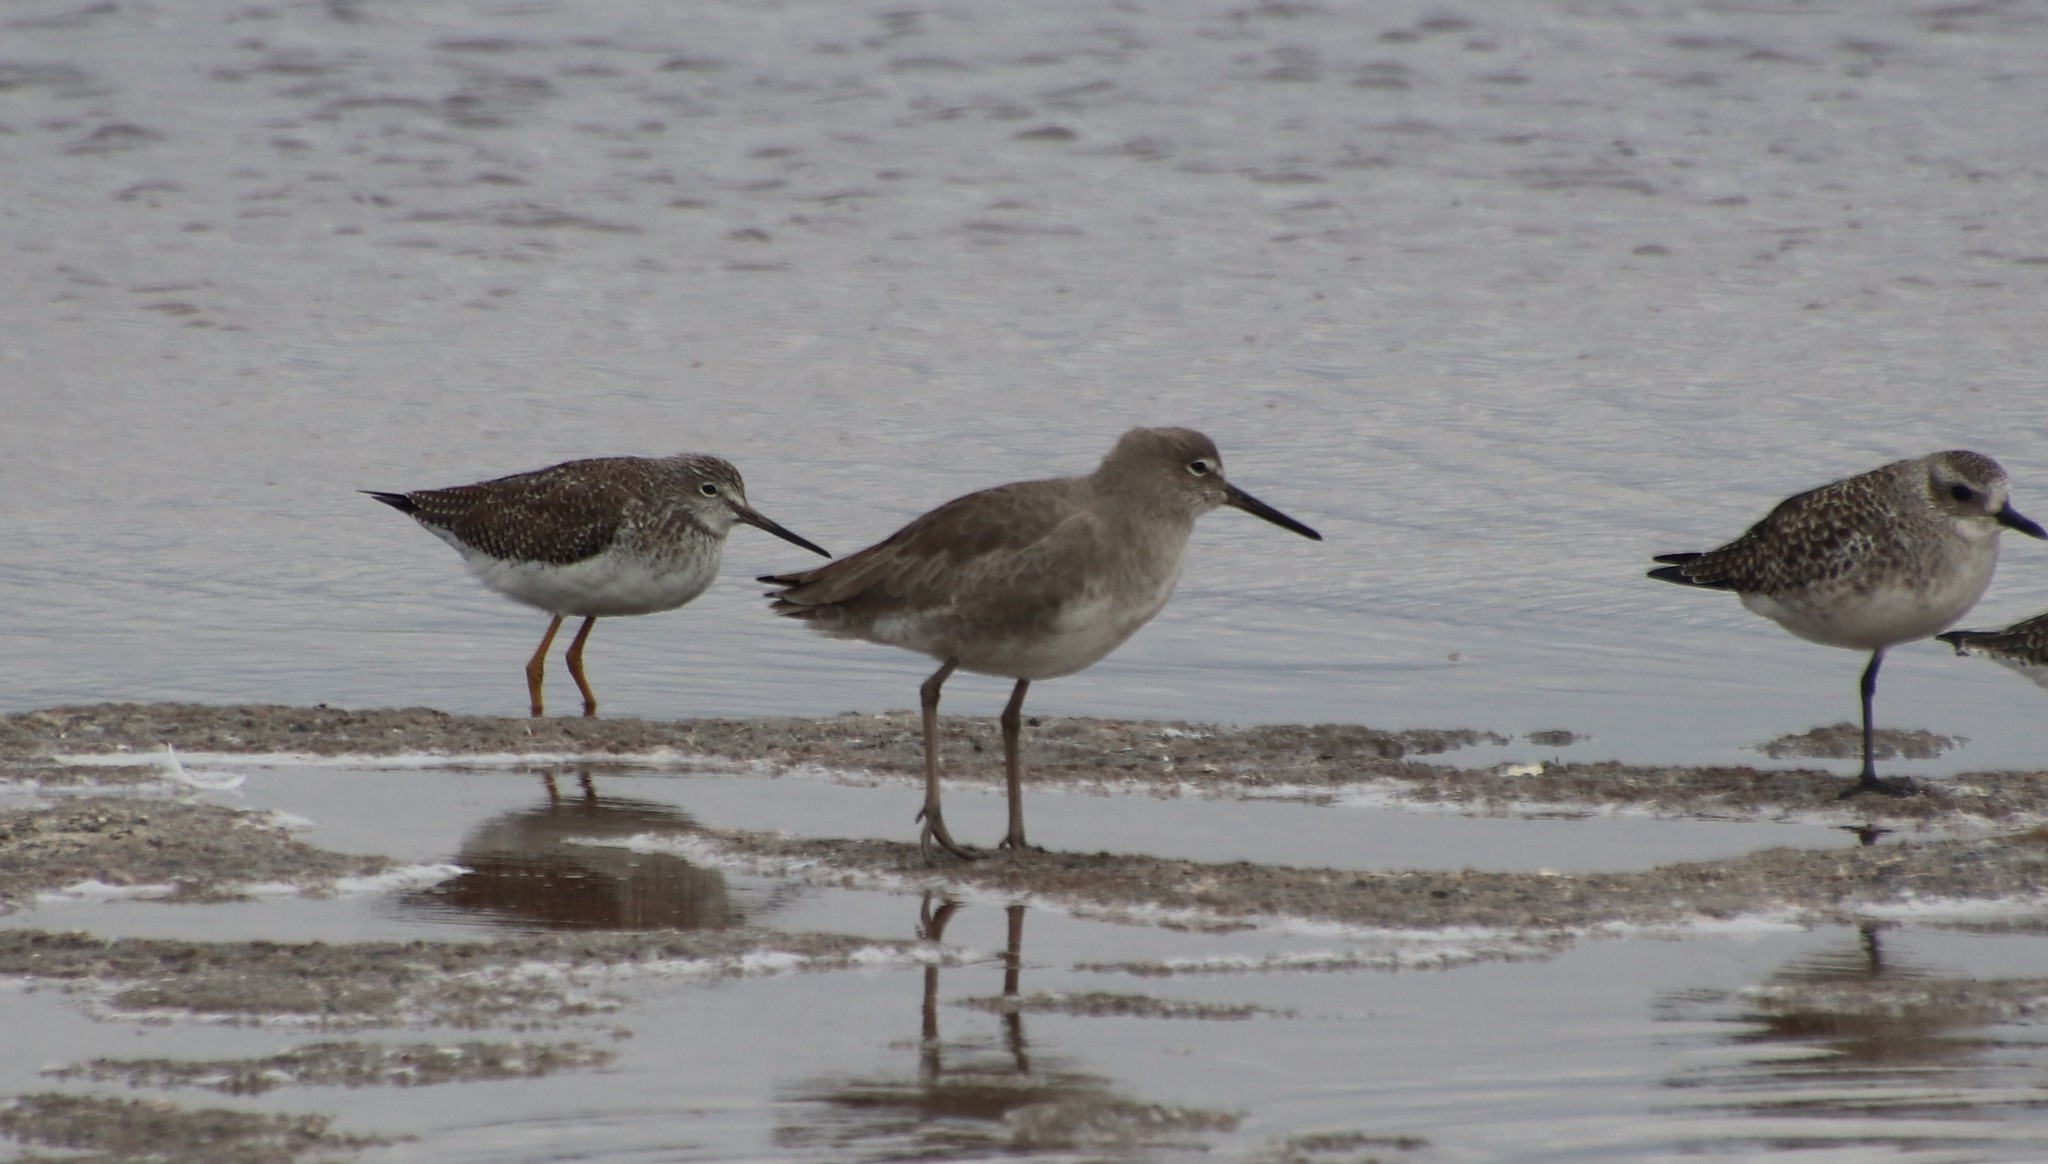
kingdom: Animalia
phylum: Chordata
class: Aves
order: Charadriiformes
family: Scolopacidae
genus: Tringa
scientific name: Tringa semipalmata
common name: Willet
